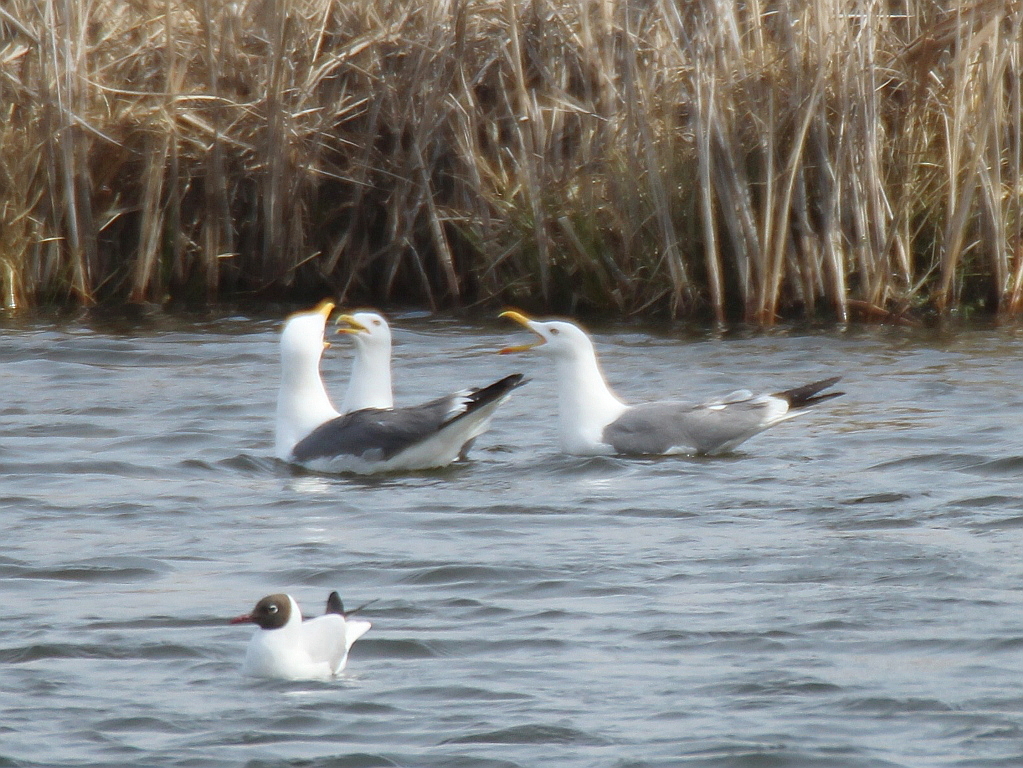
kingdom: Animalia
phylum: Chordata
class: Aves
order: Charadriiformes
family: Laridae
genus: Larus
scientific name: Larus fuscus
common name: Lesser black-backed gull
